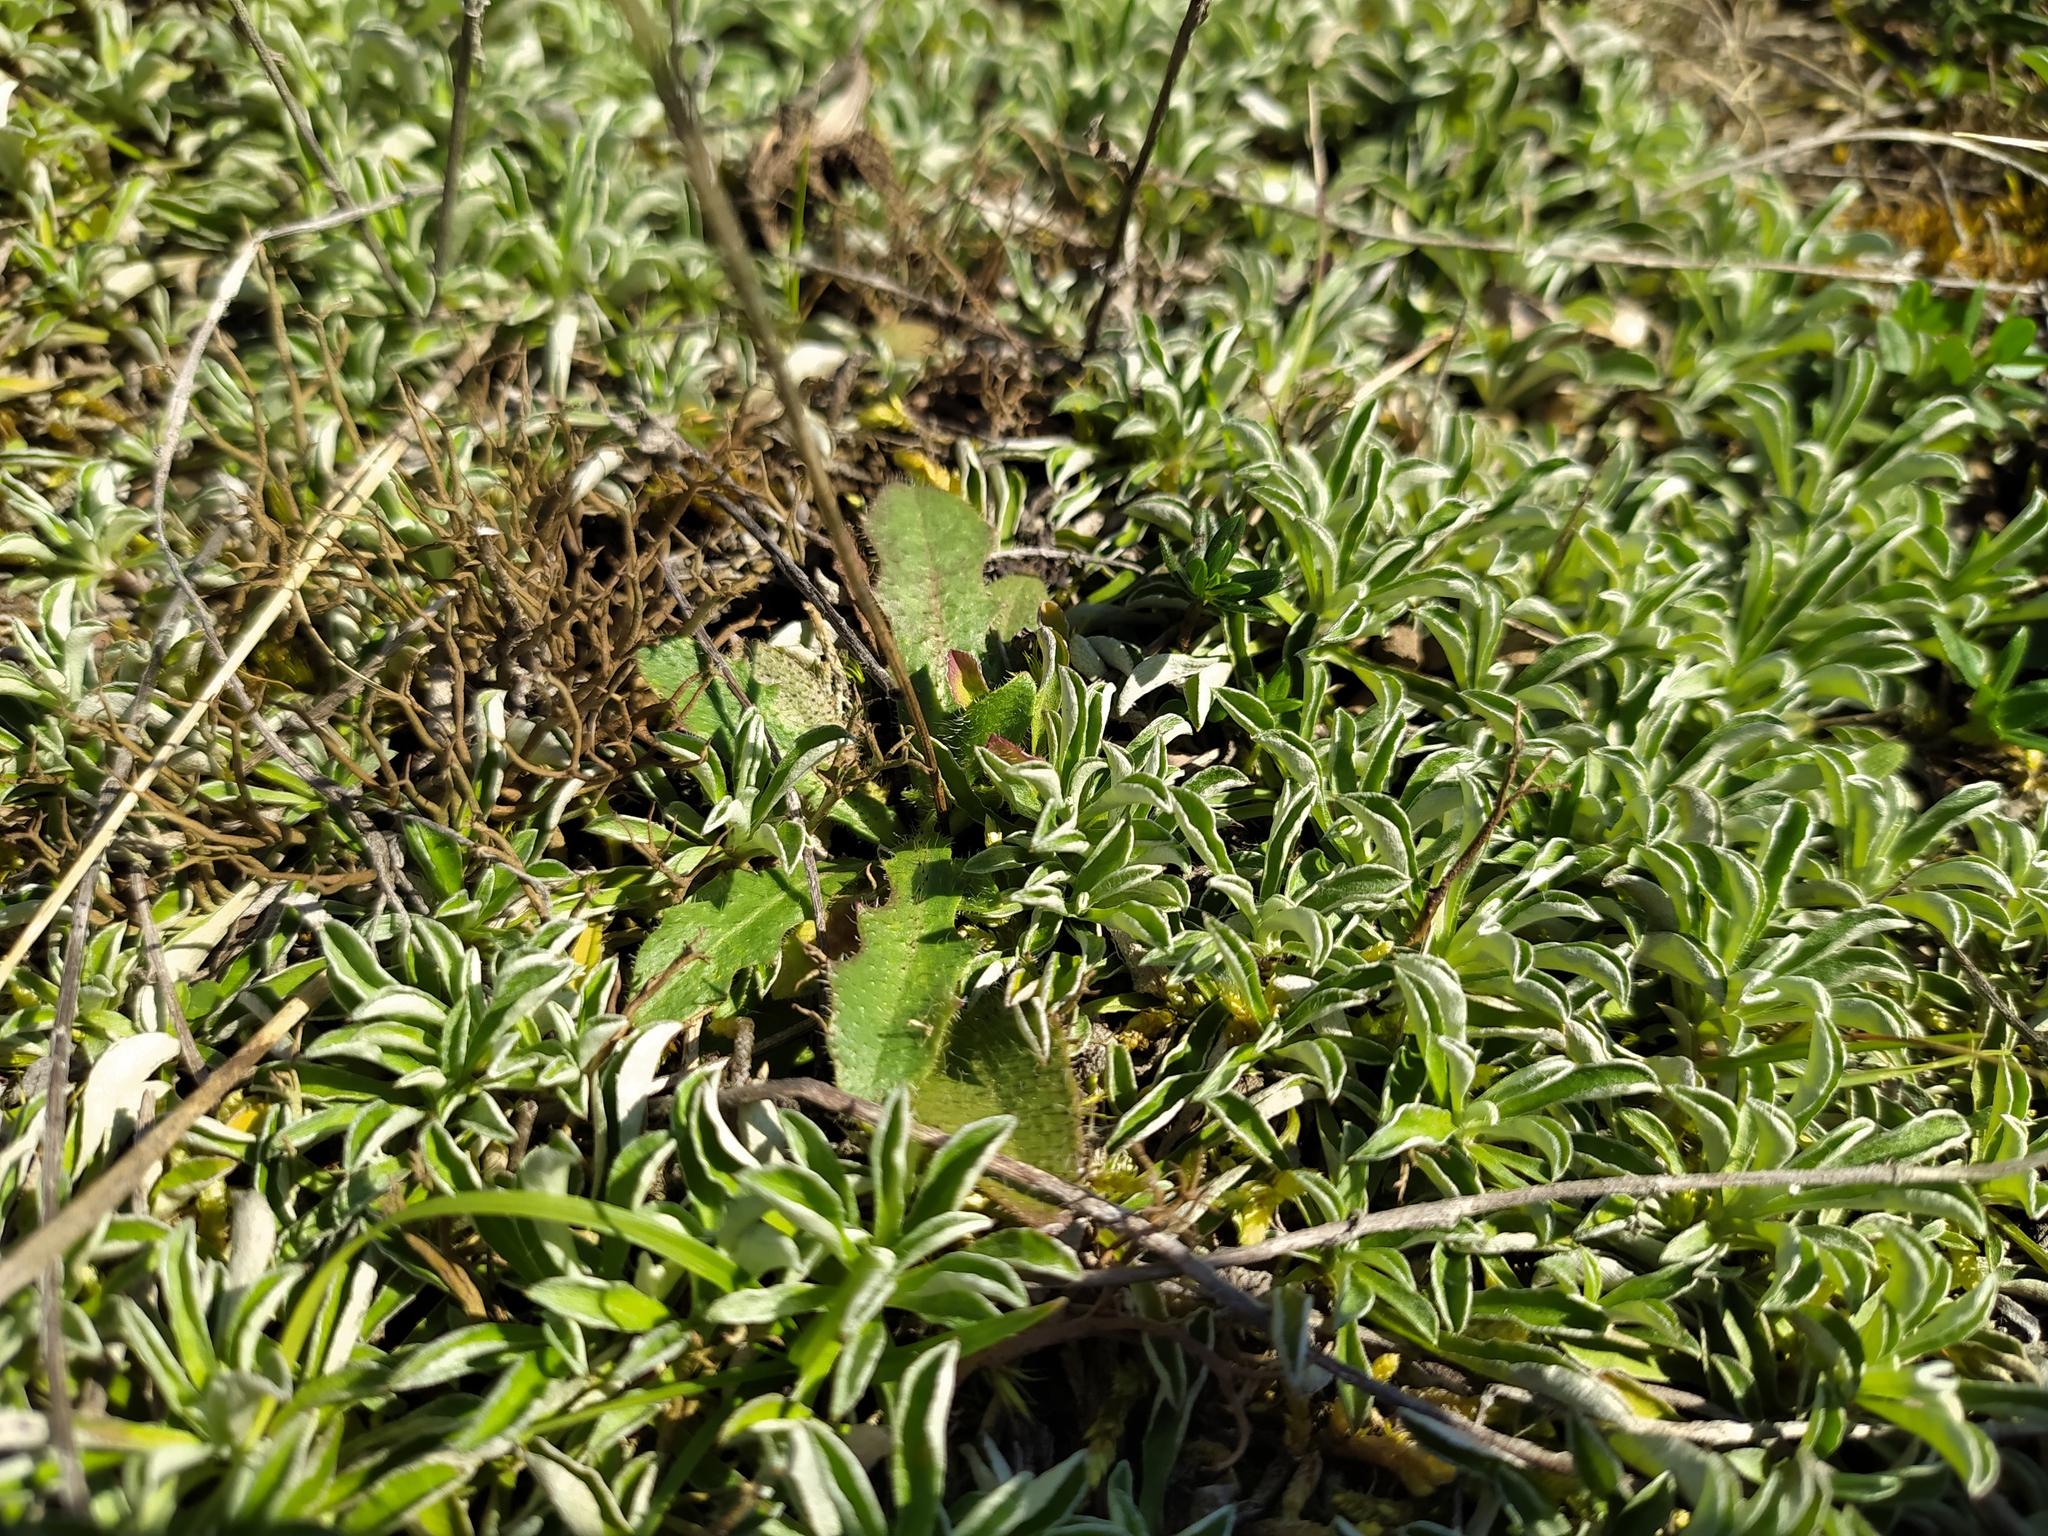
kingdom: Plantae
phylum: Tracheophyta
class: Magnoliopsida
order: Asterales
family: Asteraceae
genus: Antennaria
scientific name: Antennaria dioica
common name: Mountain everlasting
